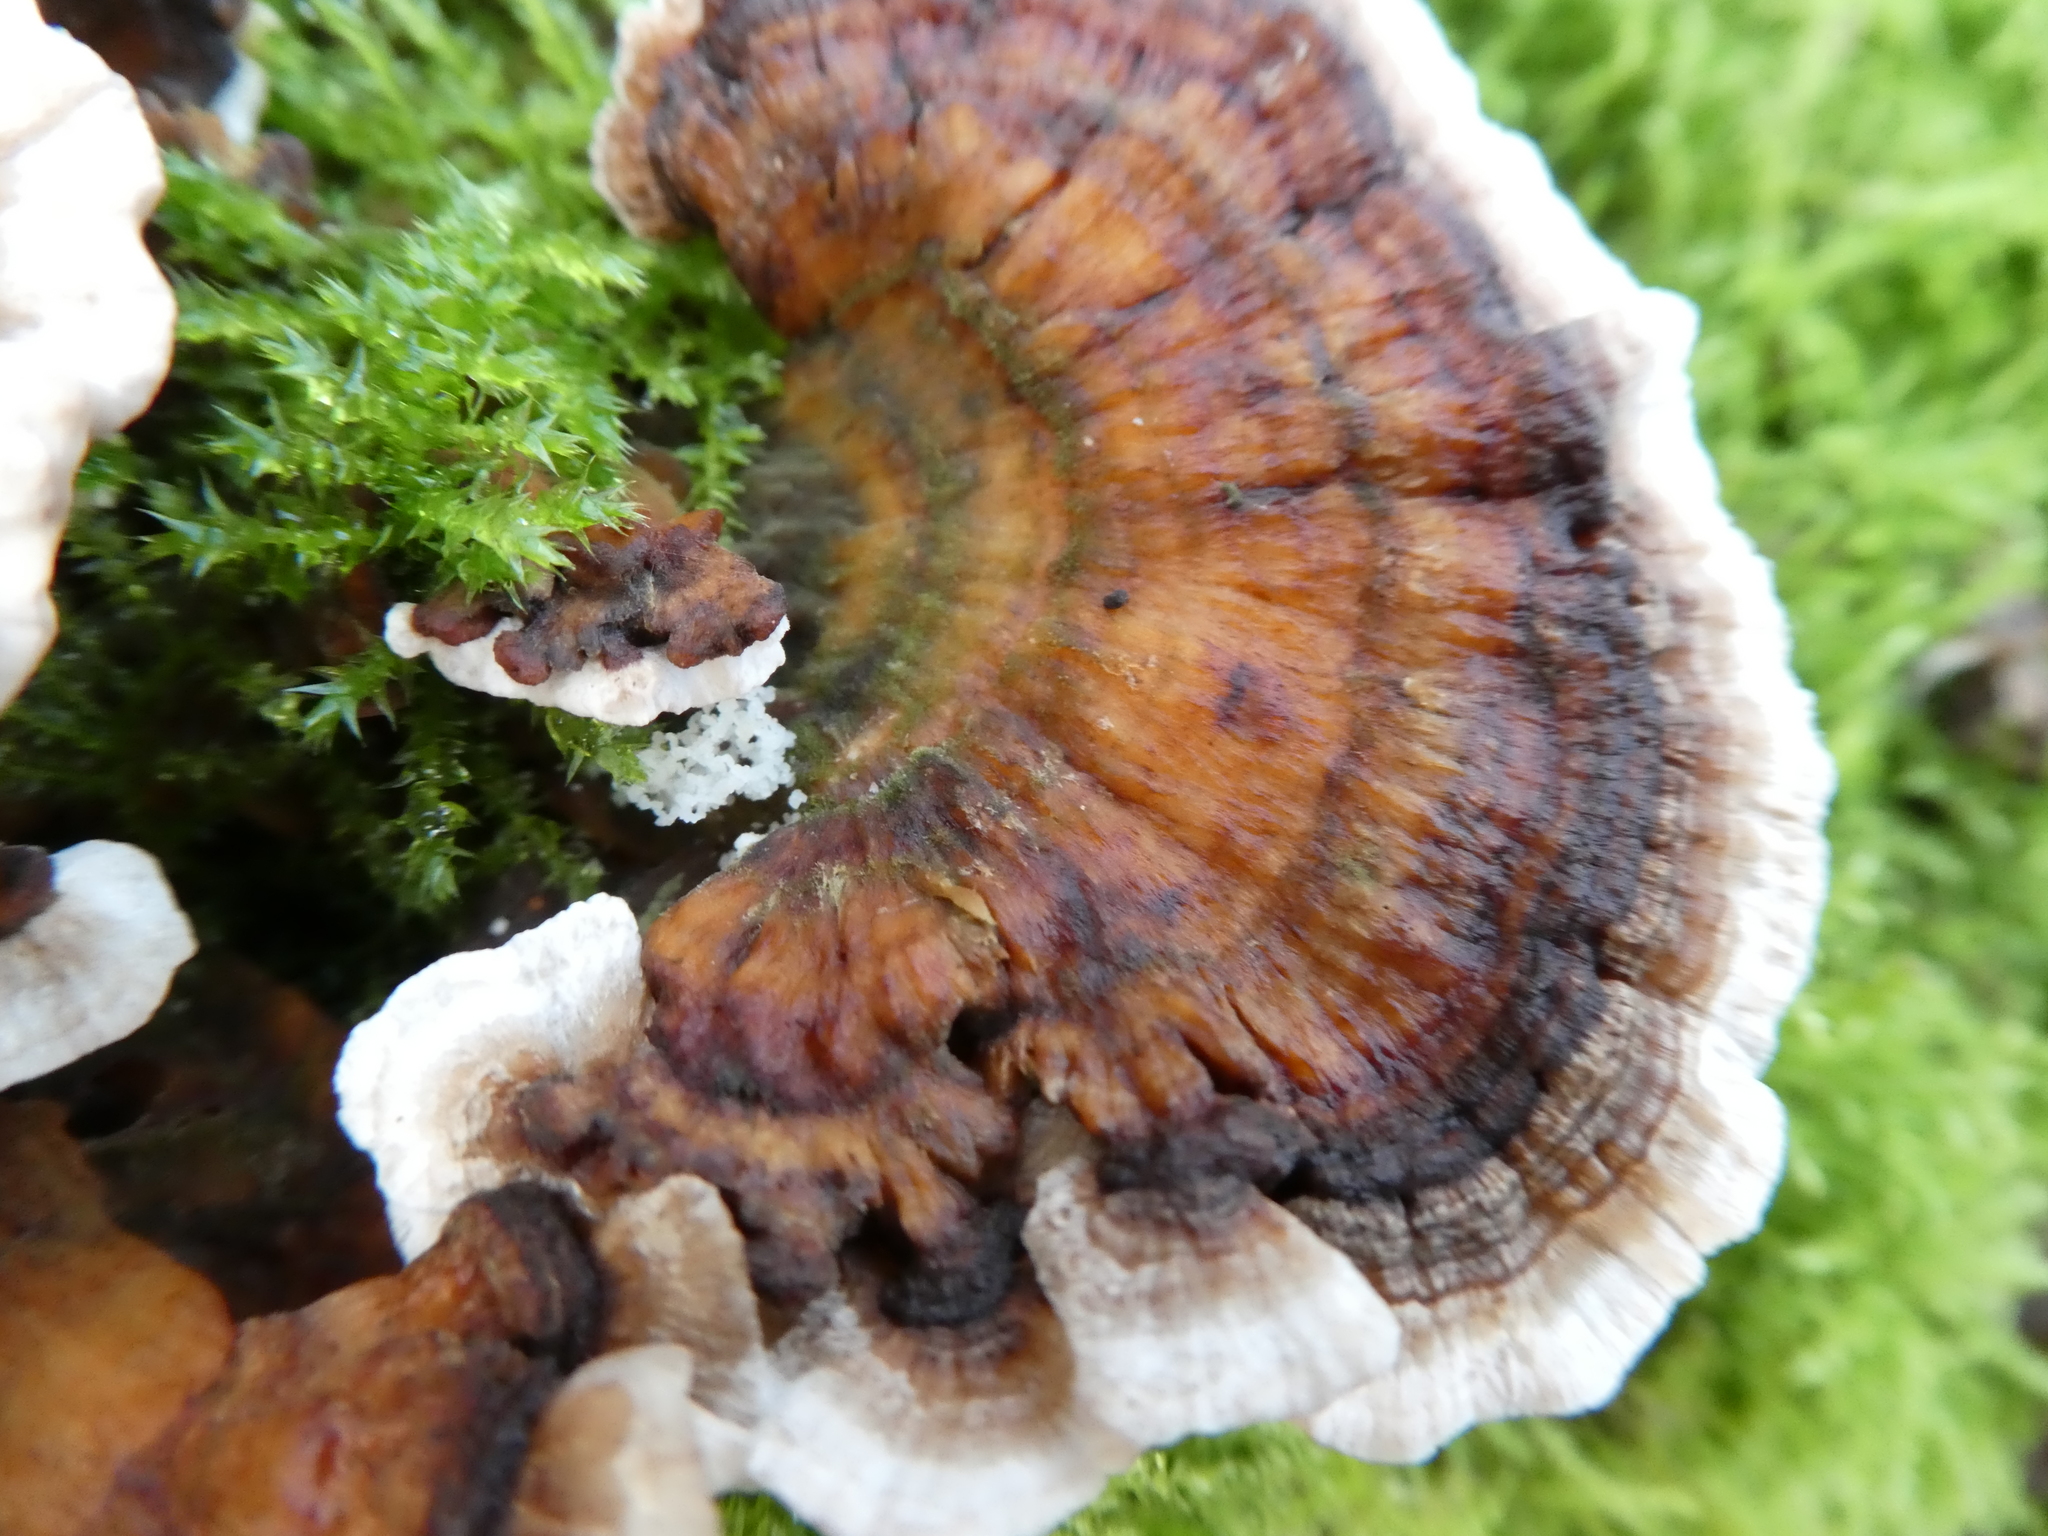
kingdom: Fungi
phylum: Basidiomycota
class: Agaricomycetes
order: Polyporales
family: Polyporaceae
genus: Trametes
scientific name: Trametes versicolor
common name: Turkeytail
